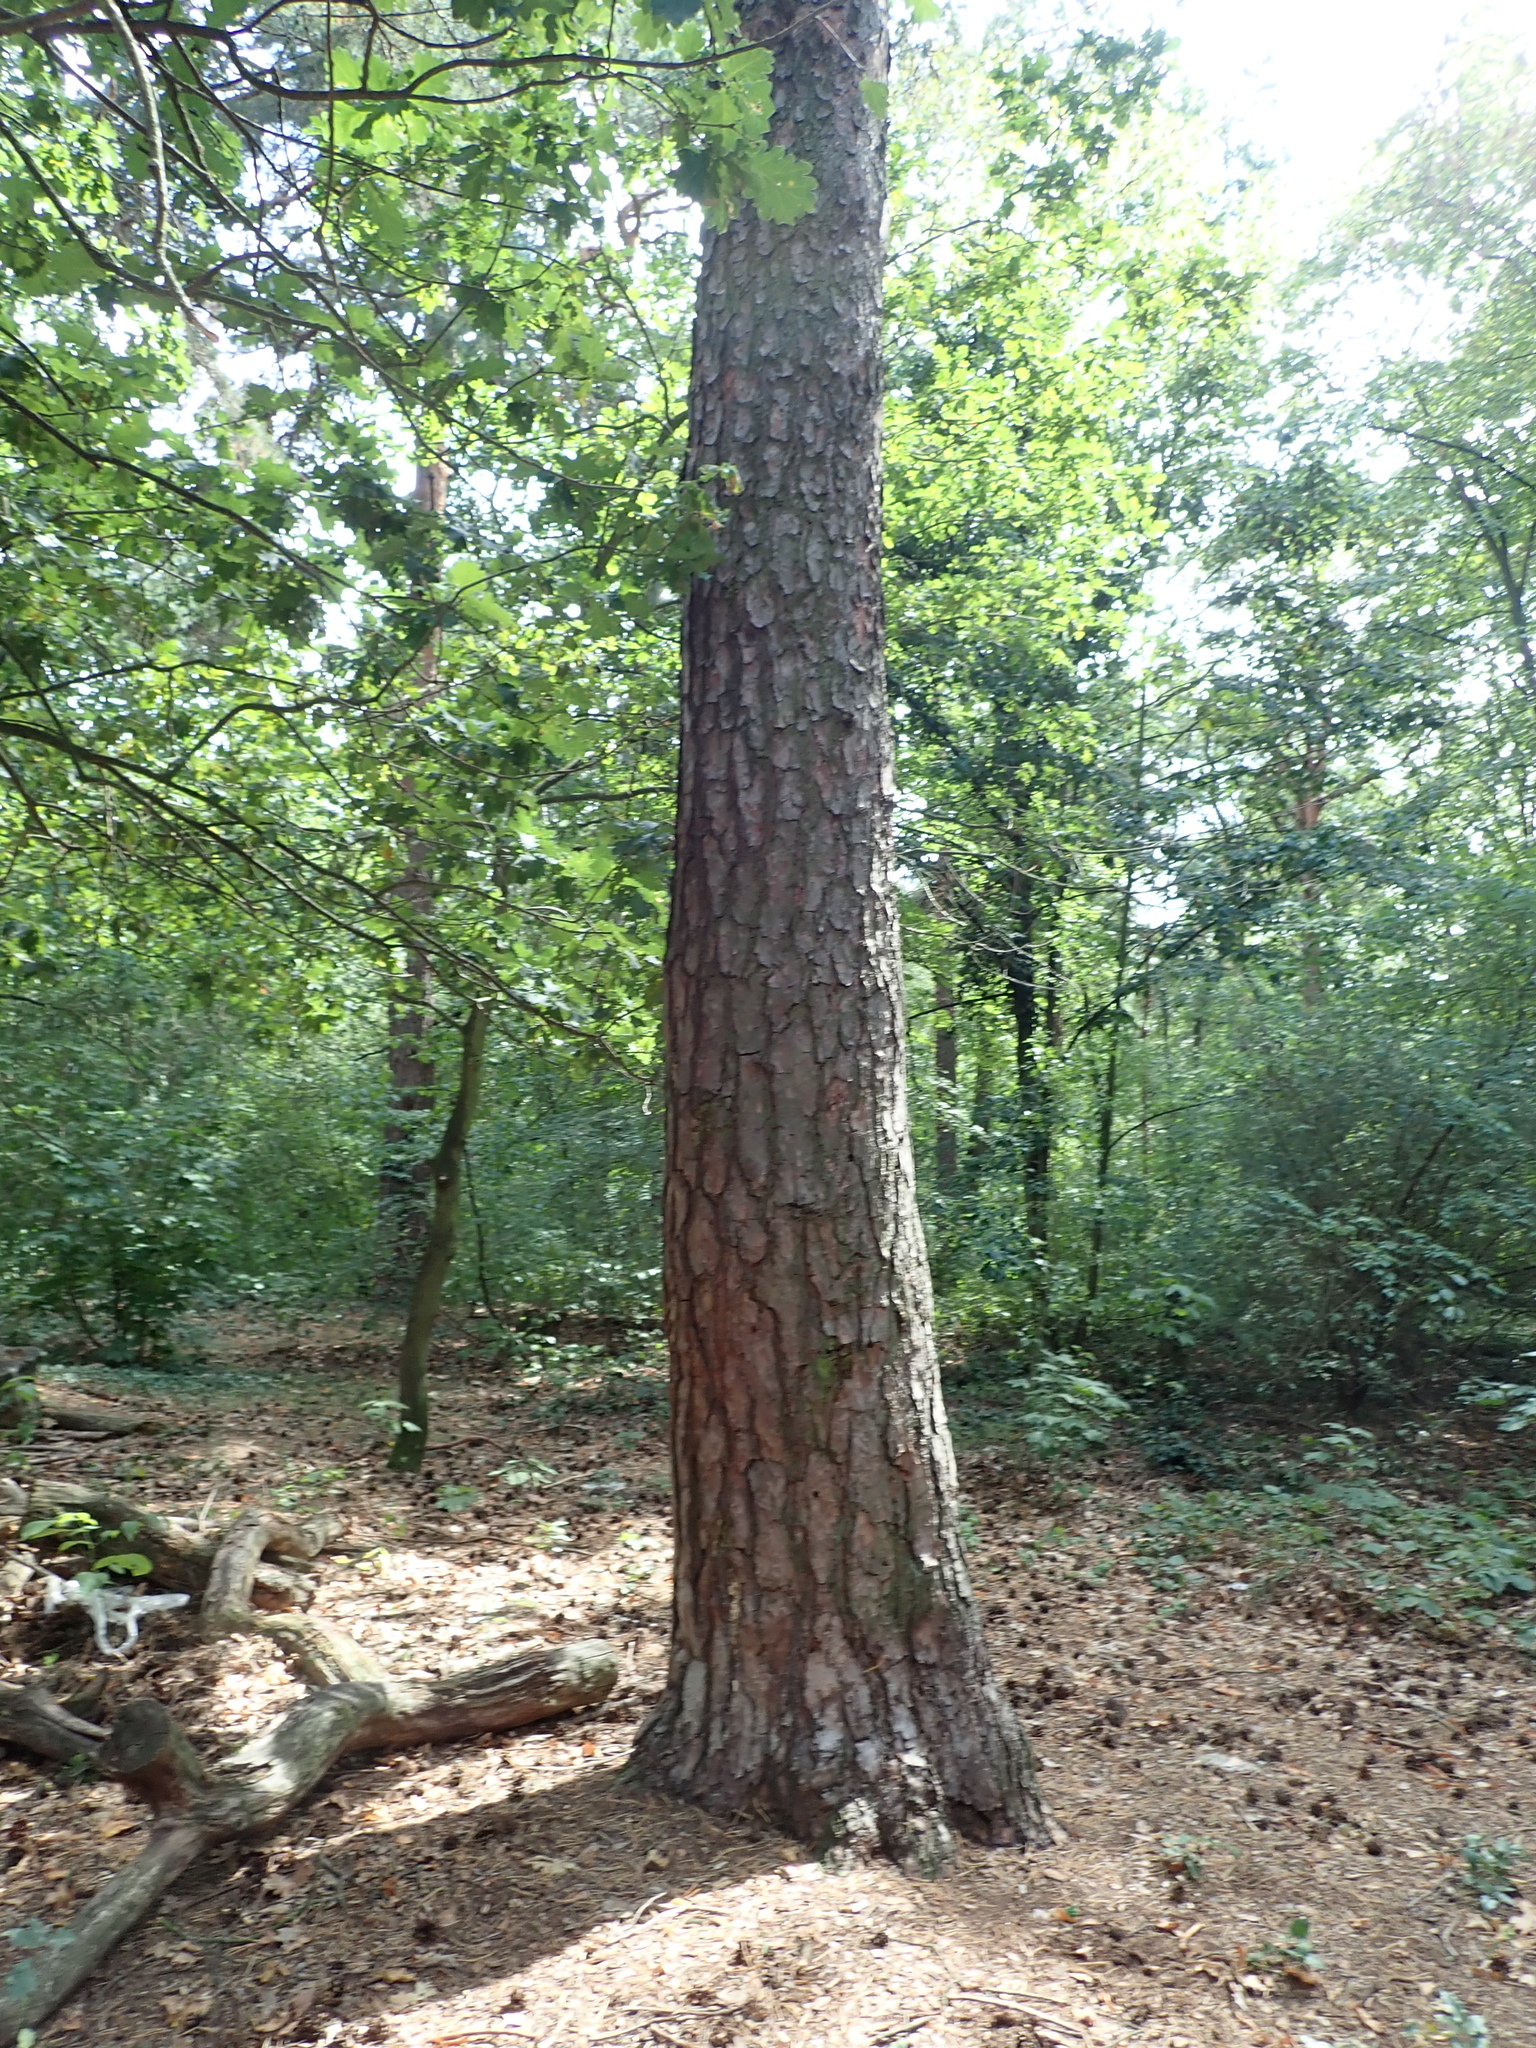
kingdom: Plantae
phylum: Tracheophyta
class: Pinopsida
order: Pinales
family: Pinaceae
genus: Pinus
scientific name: Pinus sylvestris
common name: Scots pine
